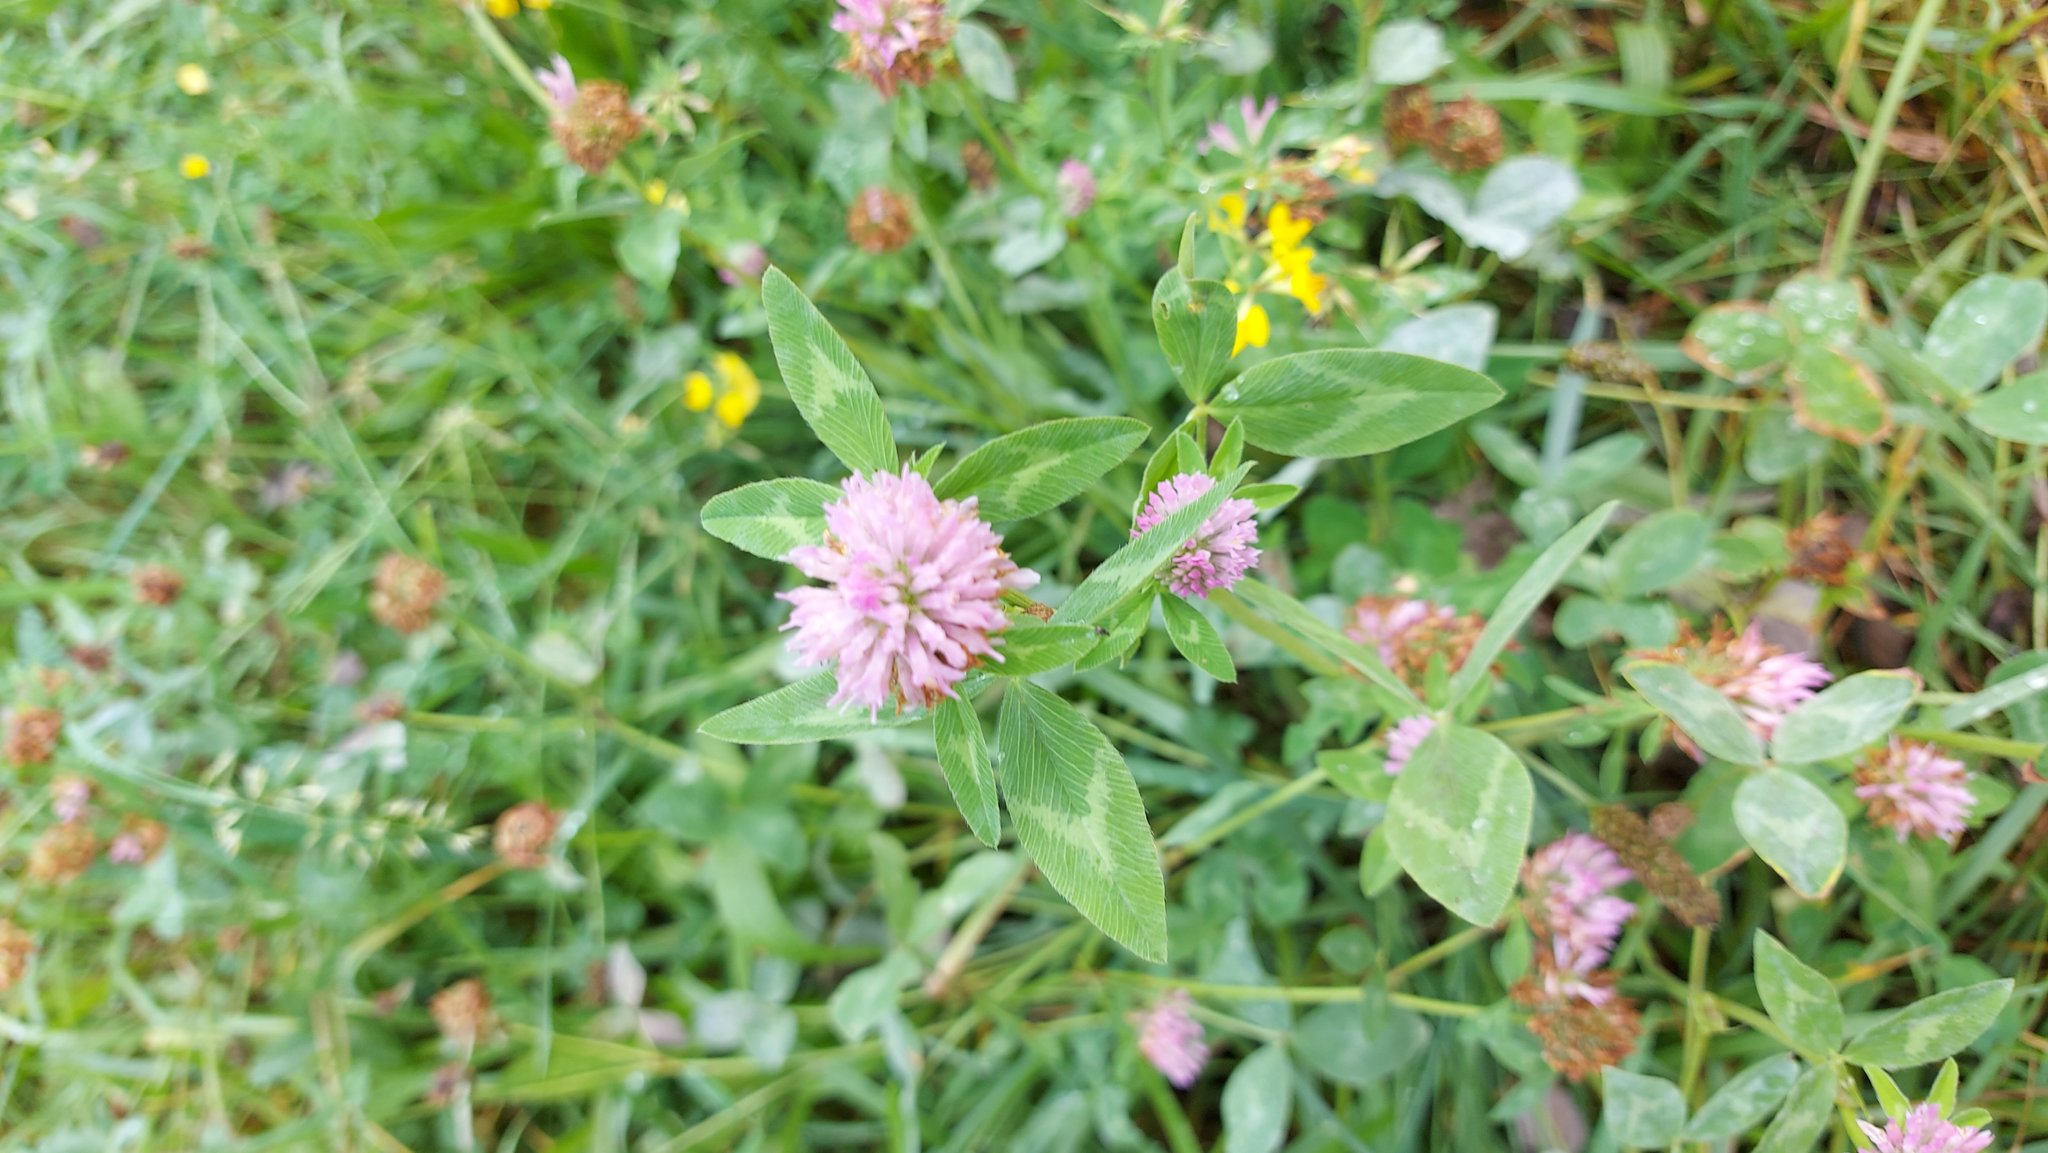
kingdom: Plantae
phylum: Tracheophyta
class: Magnoliopsida
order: Fabales
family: Fabaceae
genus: Trifolium
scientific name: Trifolium pratense
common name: Red clover
